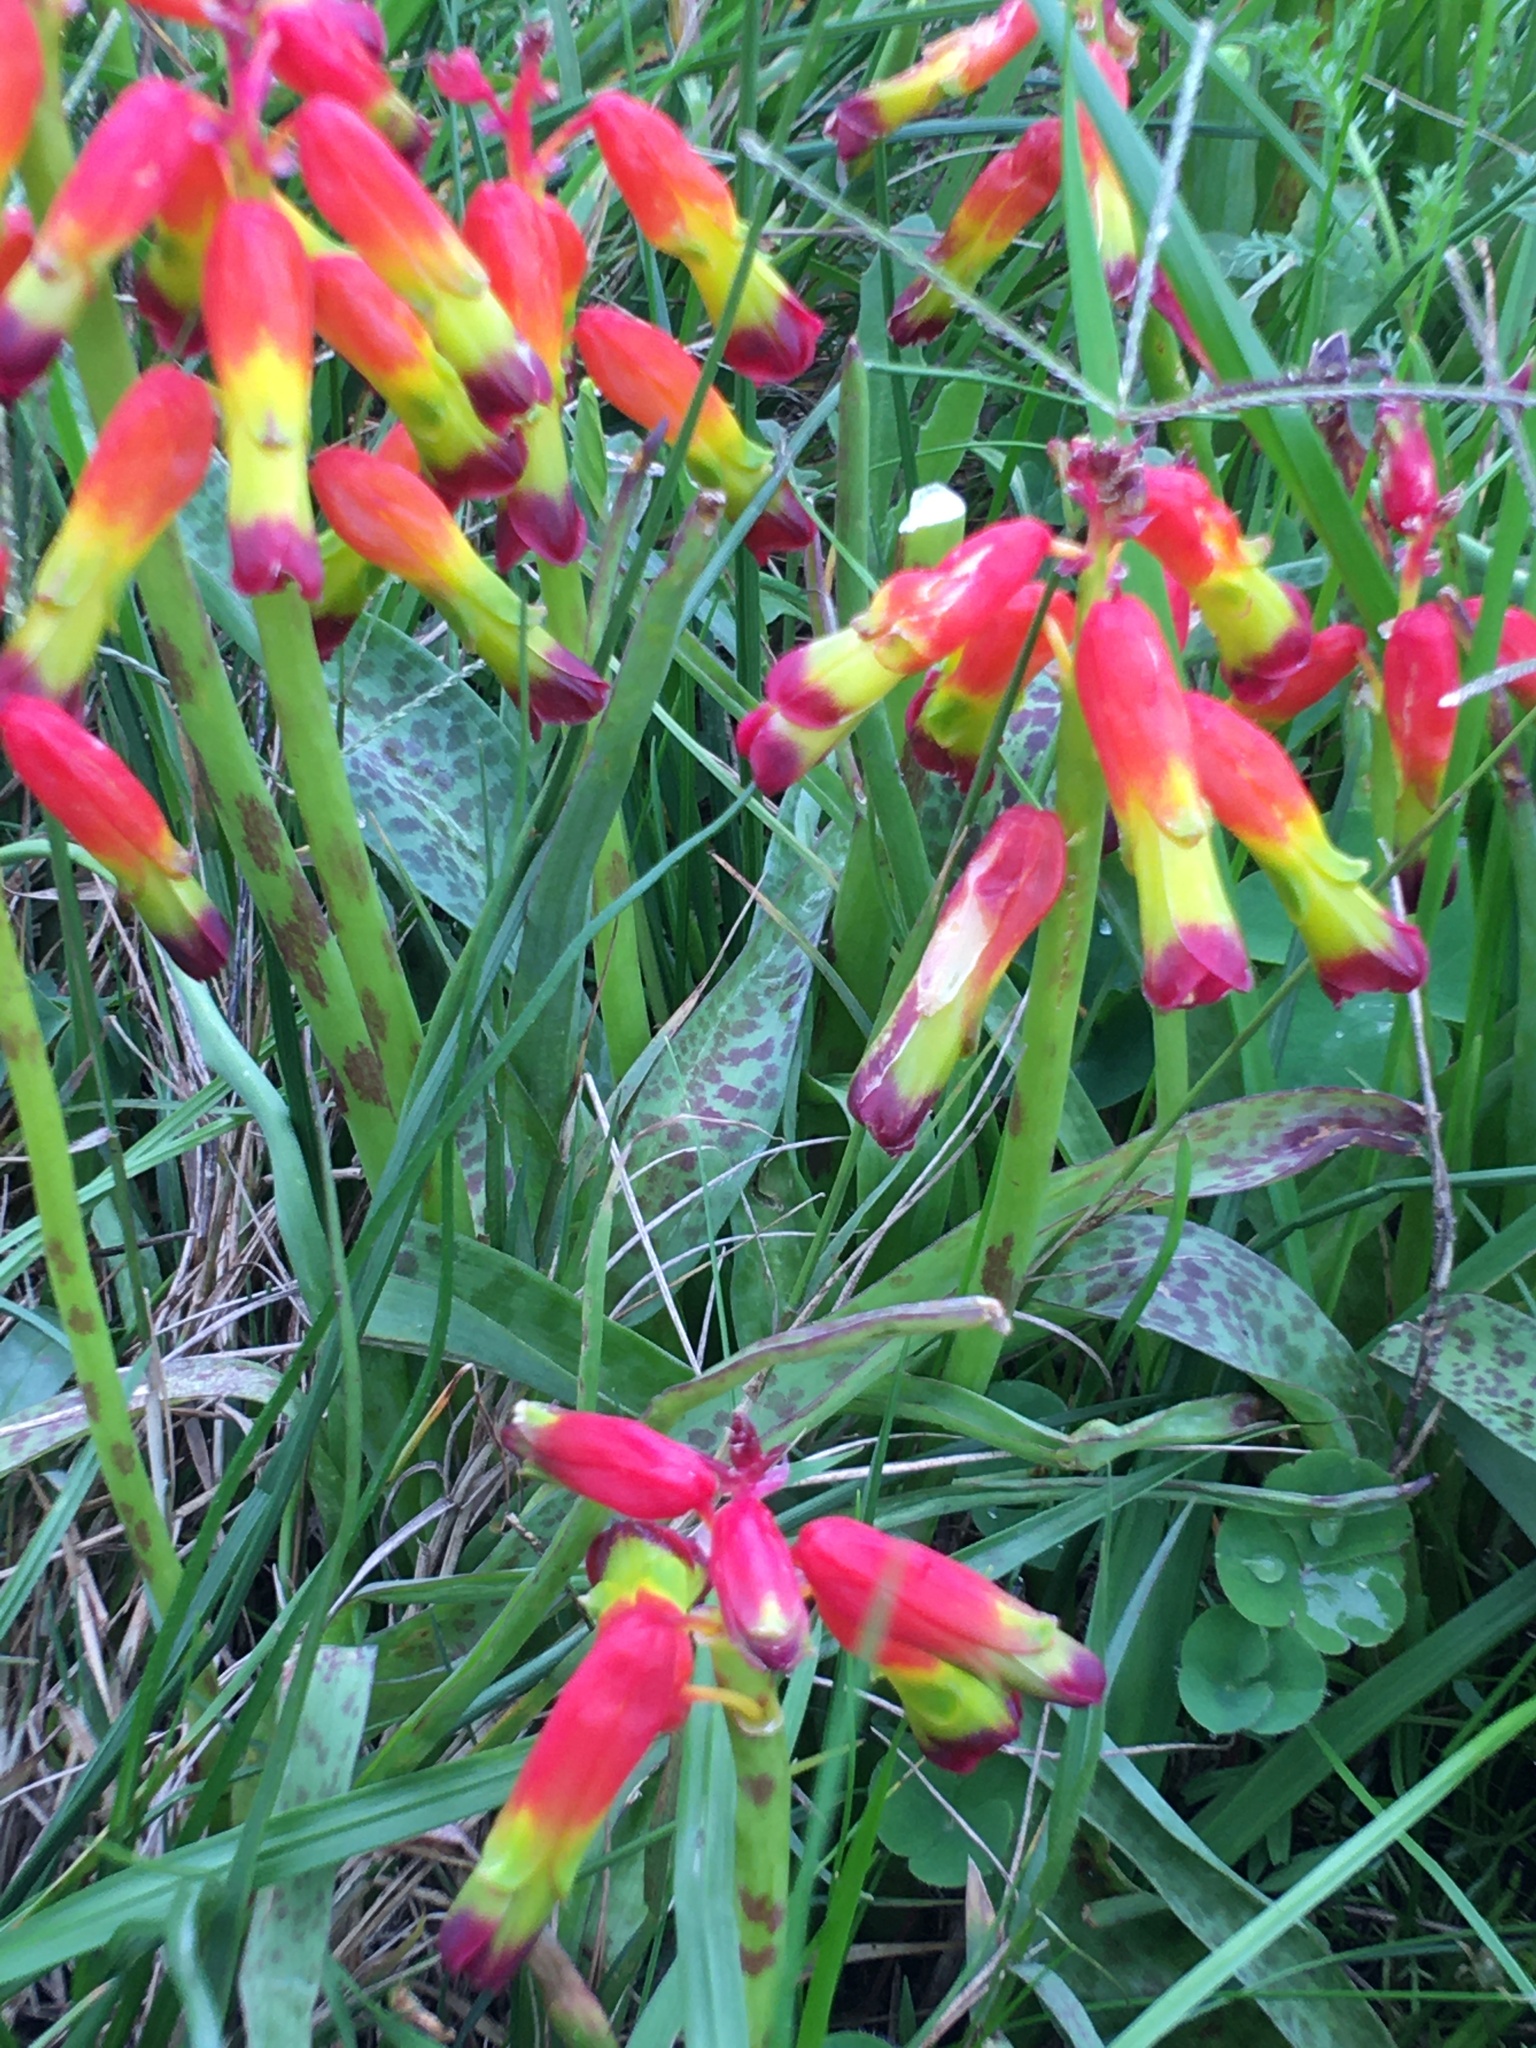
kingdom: Plantae
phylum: Tracheophyta
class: Liliopsida
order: Asparagales
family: Asparagaceae
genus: Lachenalia
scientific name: Lachenalia quadricolor
